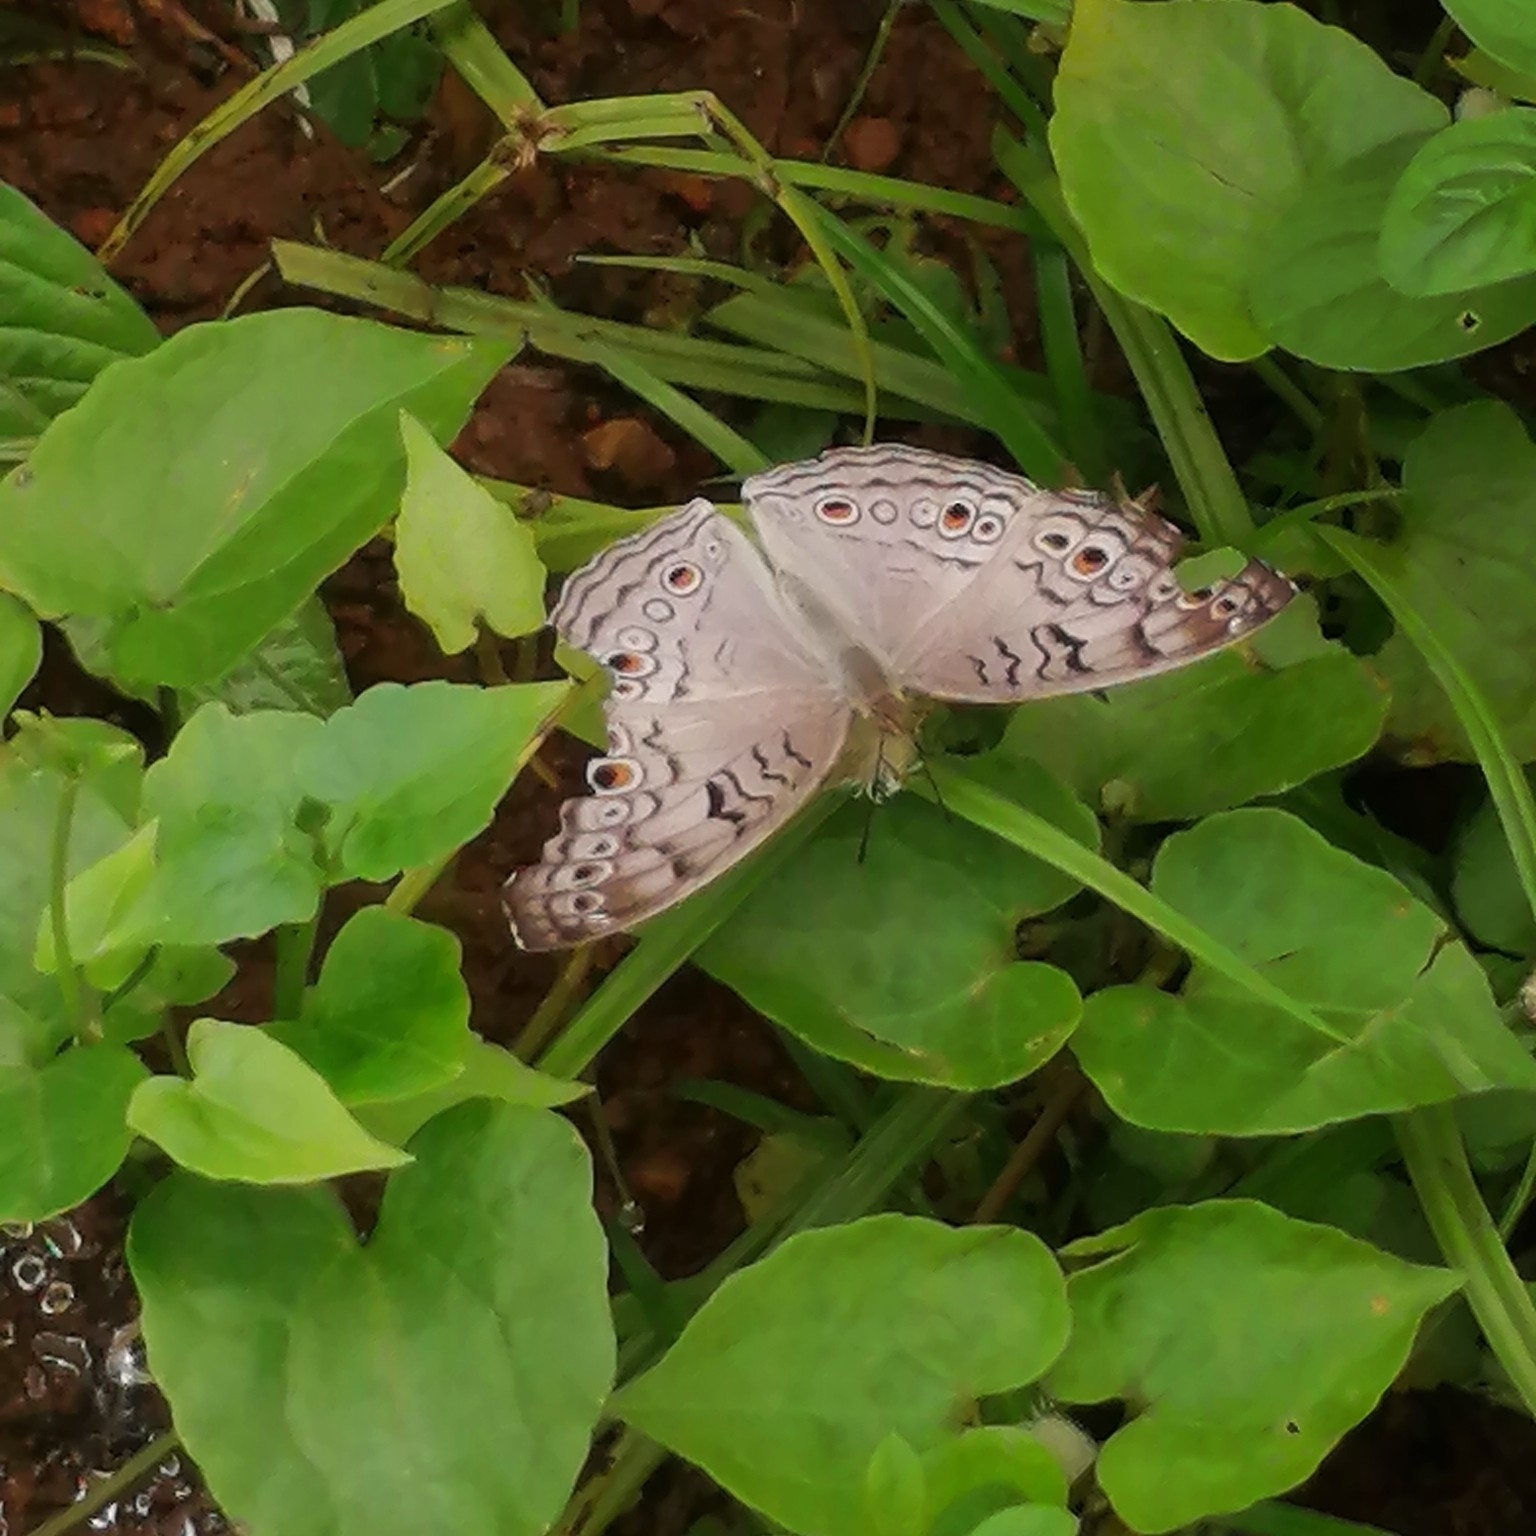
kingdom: Animalia
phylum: Arthropoda
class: Insecta
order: Lepidoptera
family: Nymphalidae
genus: Junonia
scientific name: Junonia atlites
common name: Grey pansy
